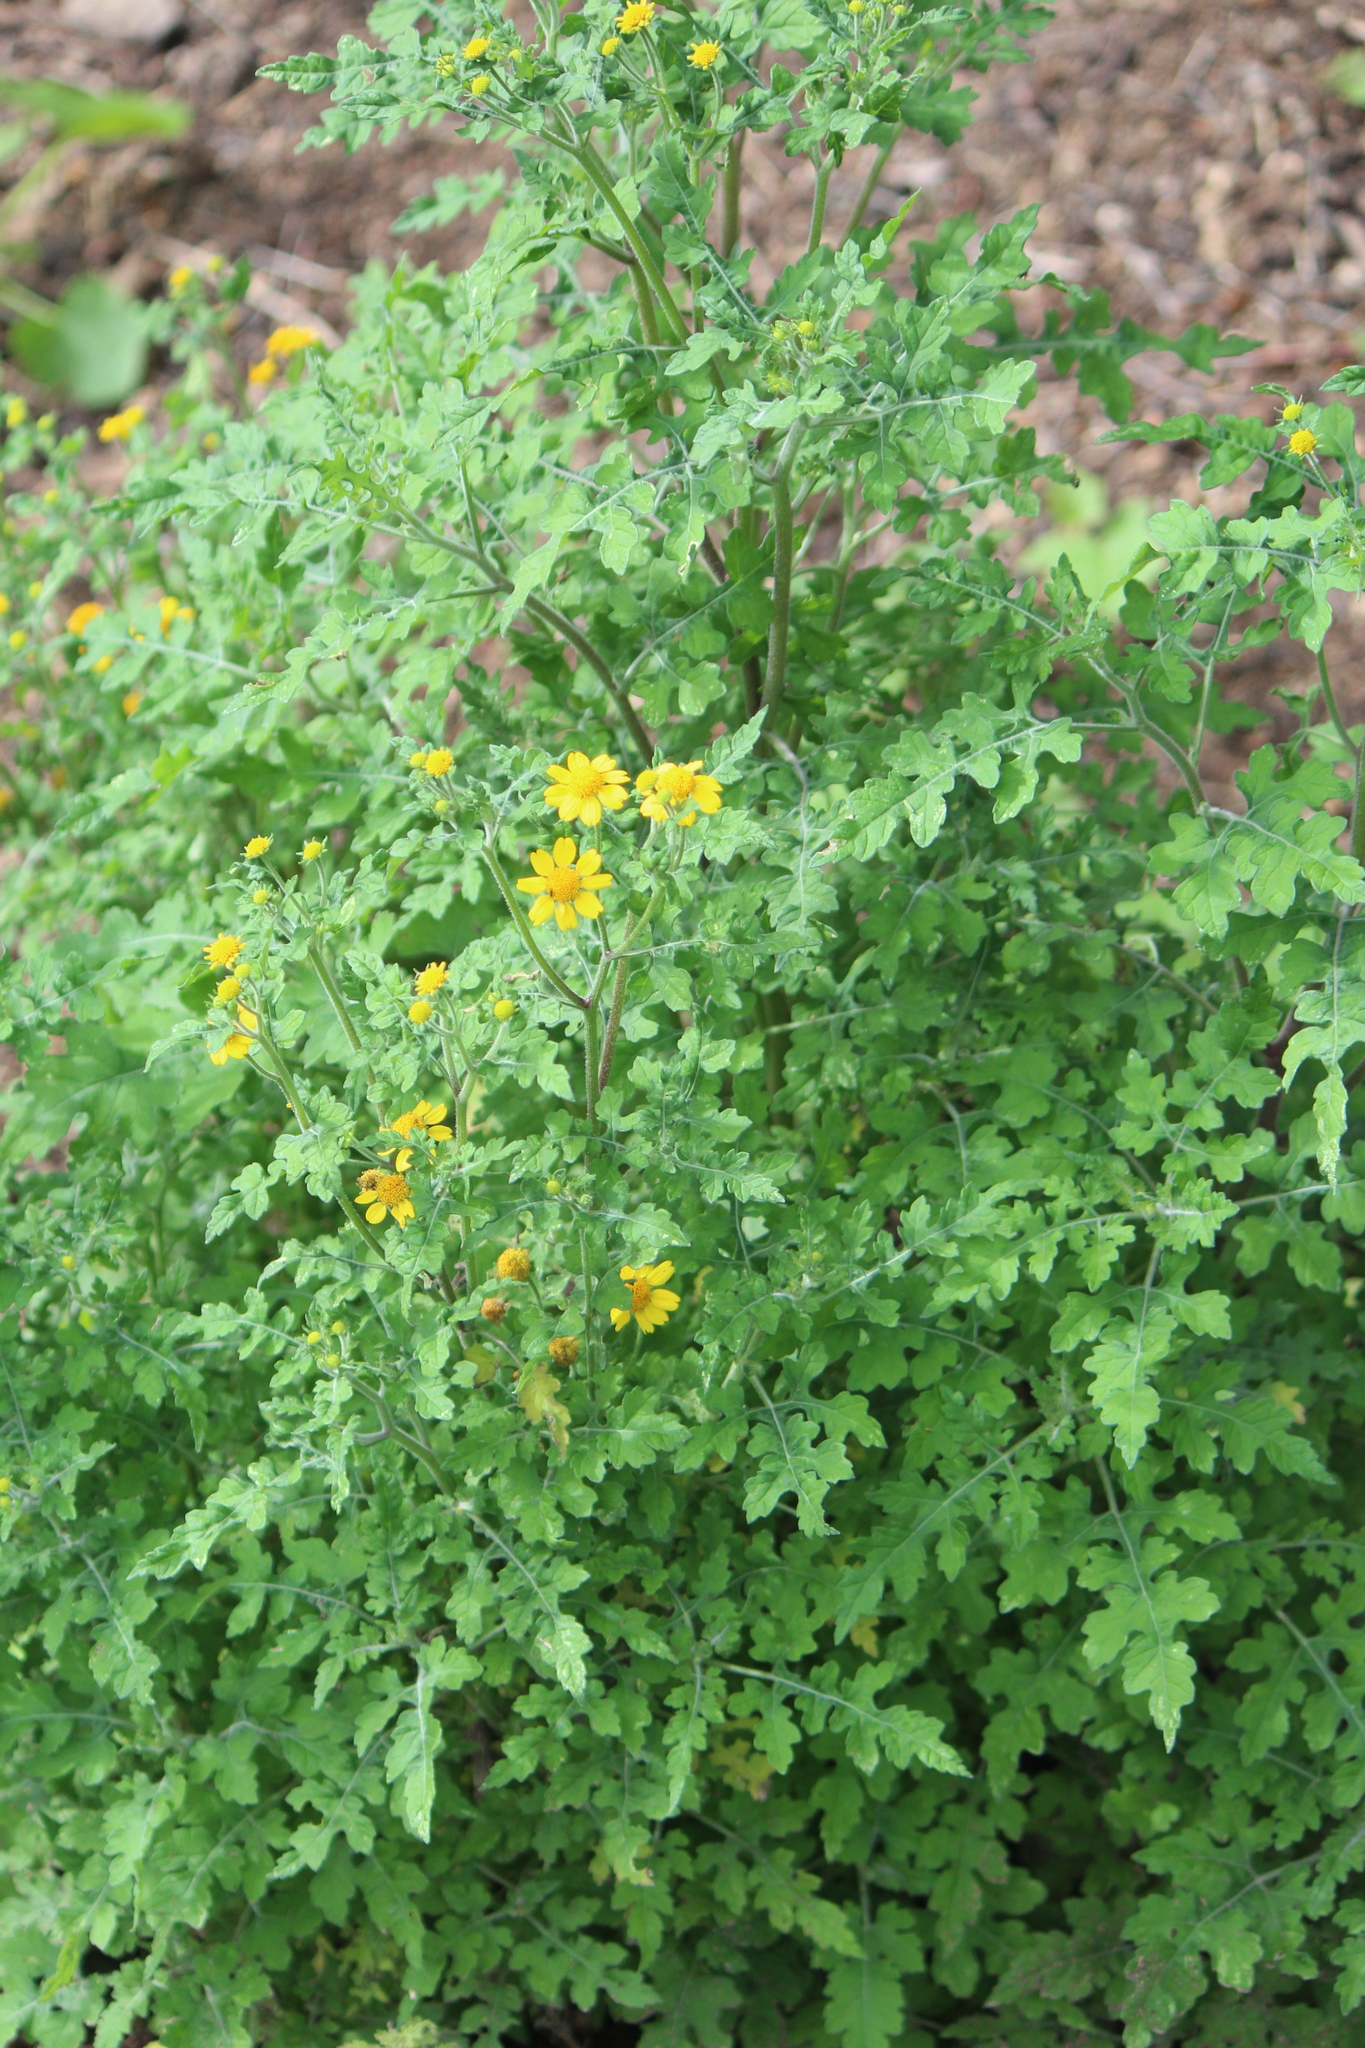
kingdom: Plantae
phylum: Tracheophyta
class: Magnoliopsida
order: Asterales
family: Asteraceae
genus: Zaluzania
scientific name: Zaluzania triloba
